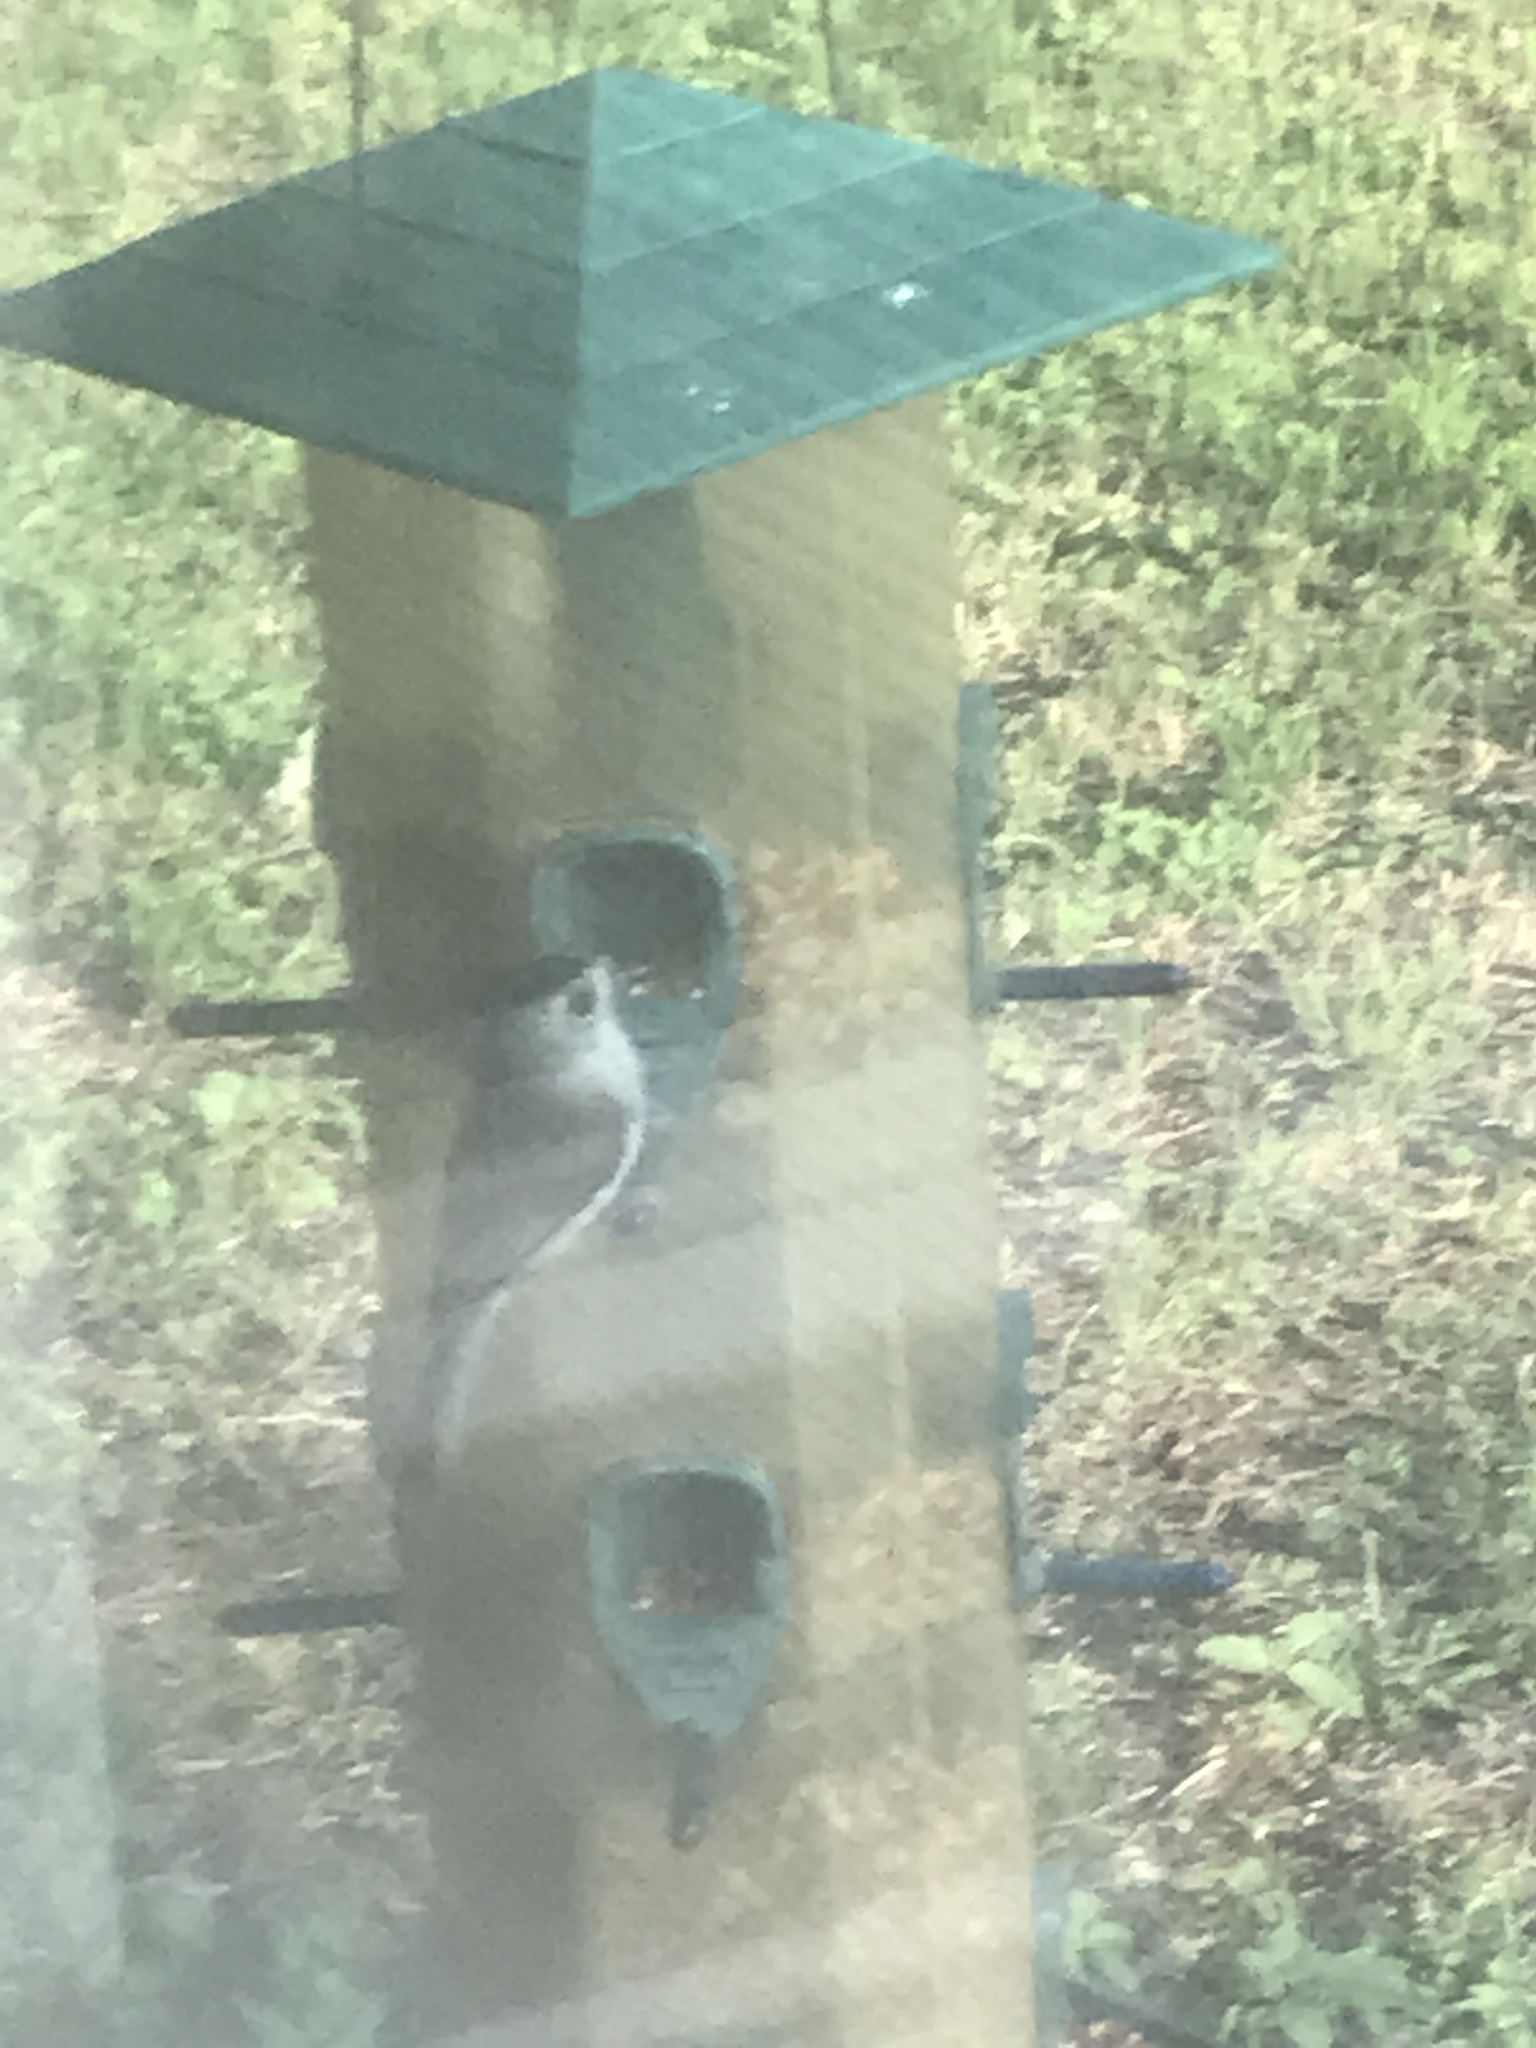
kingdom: Animalia
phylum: Chordata
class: Aves
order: Passeriformes
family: Paridae
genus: Baeolophus
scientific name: Baeolophus atricristatus
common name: Black-crested titmouse
